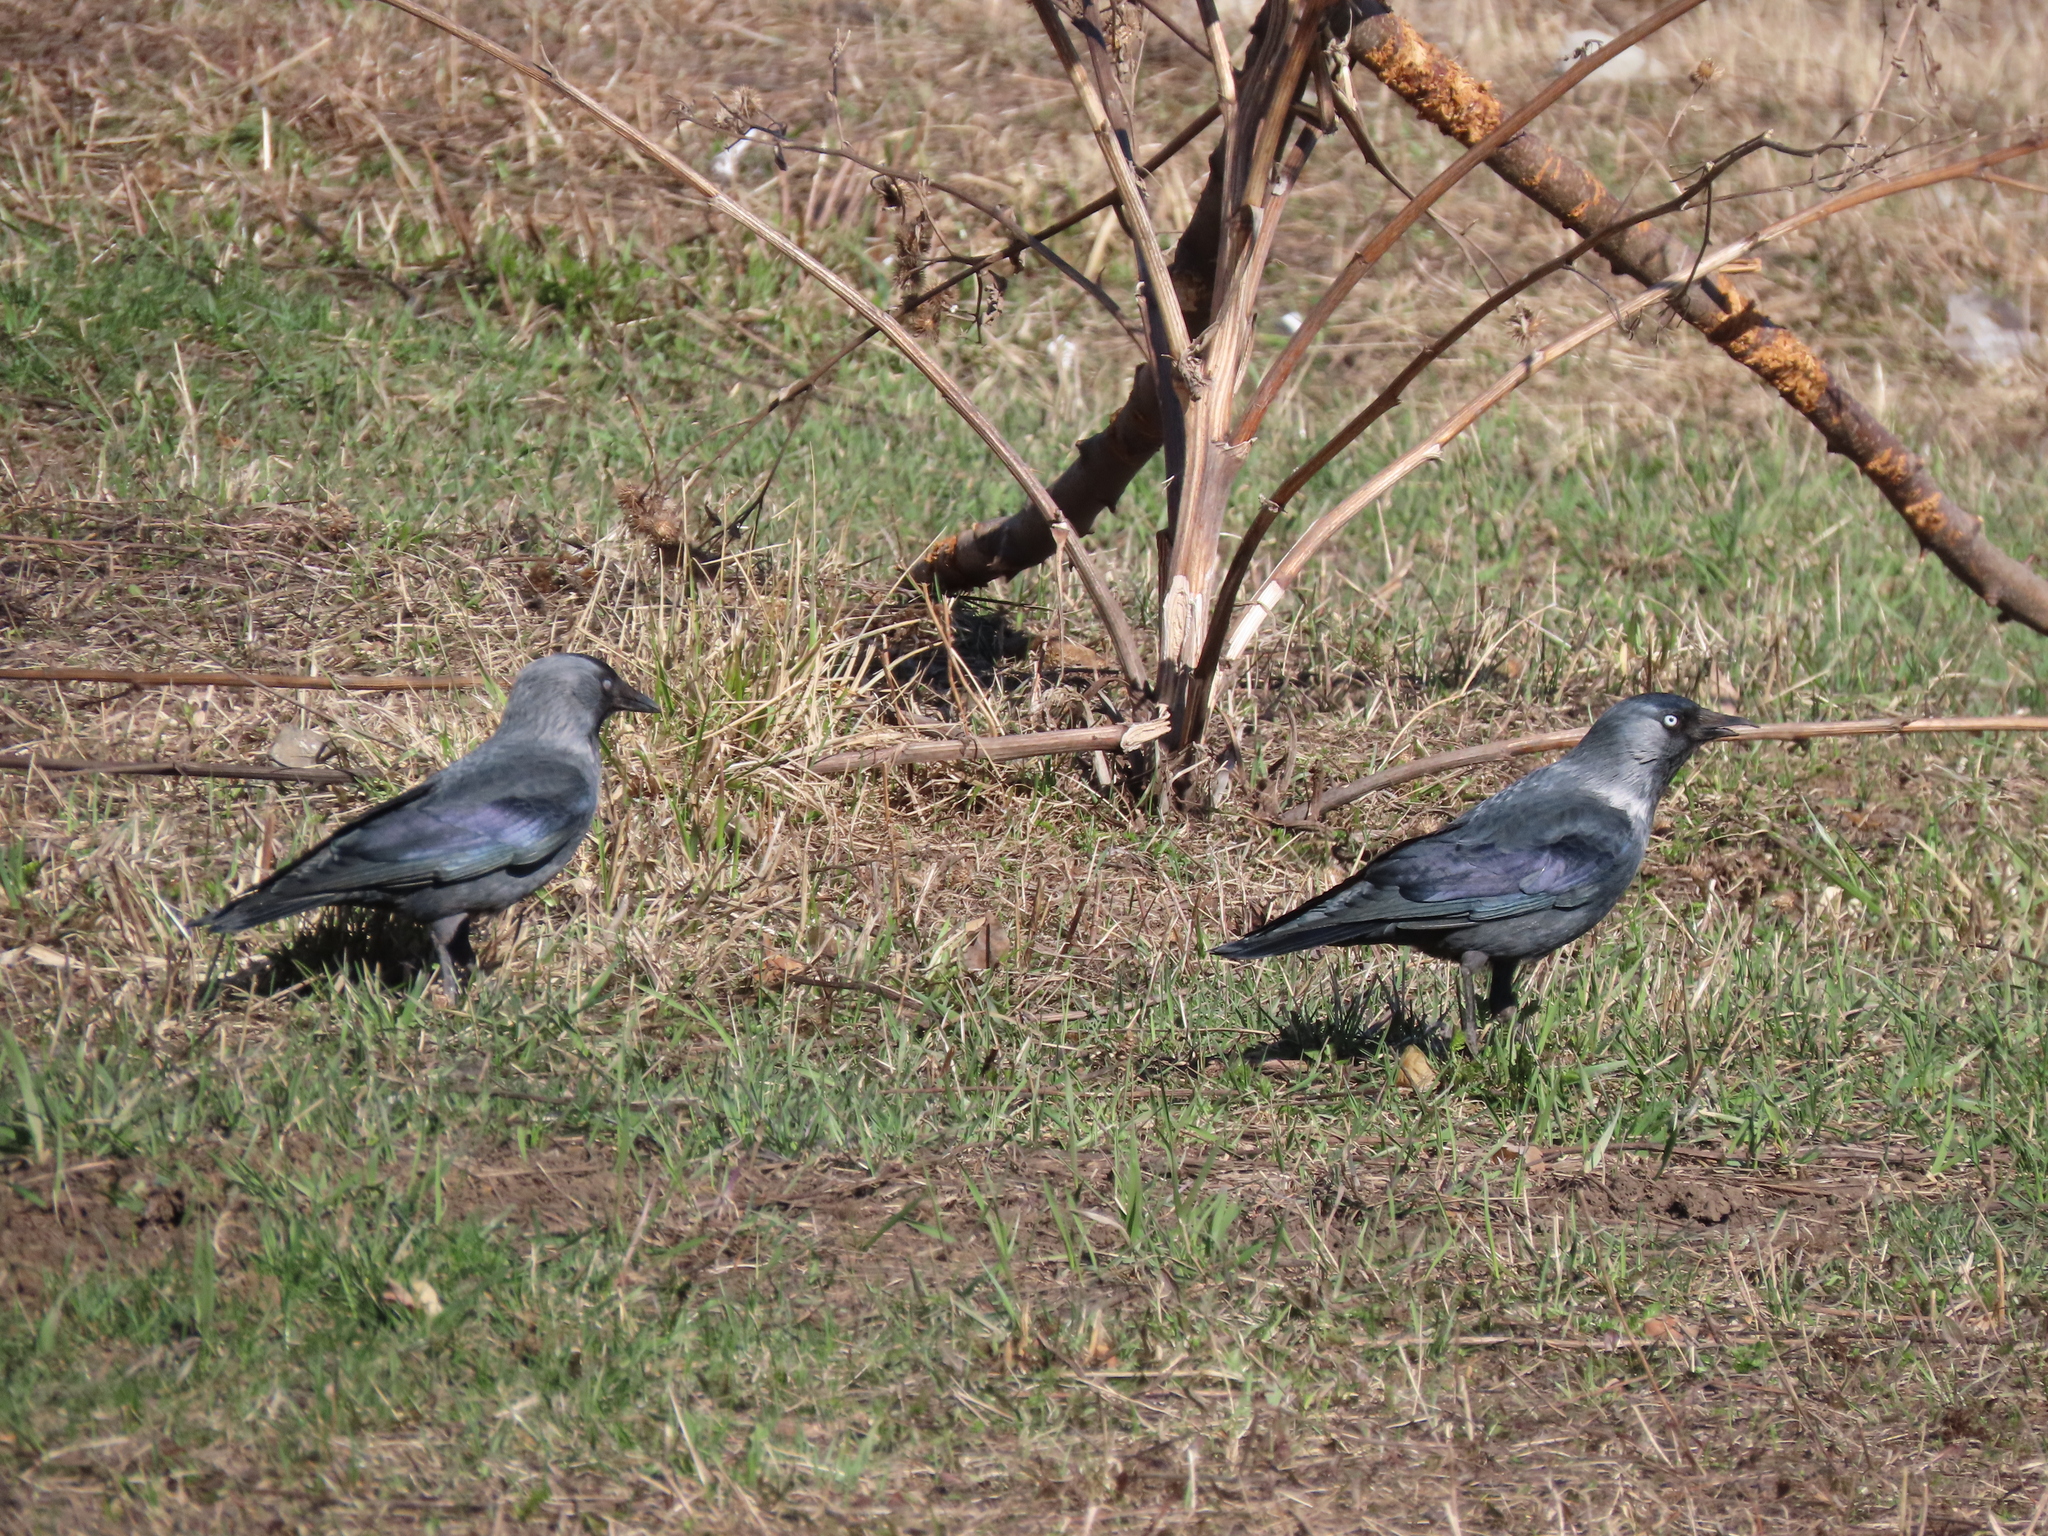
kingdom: Animalia
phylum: Chordata
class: Aves
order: Passeriformes
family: Corvidae
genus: Coloeus
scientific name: Coloeus monedula
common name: Western jackdaw
